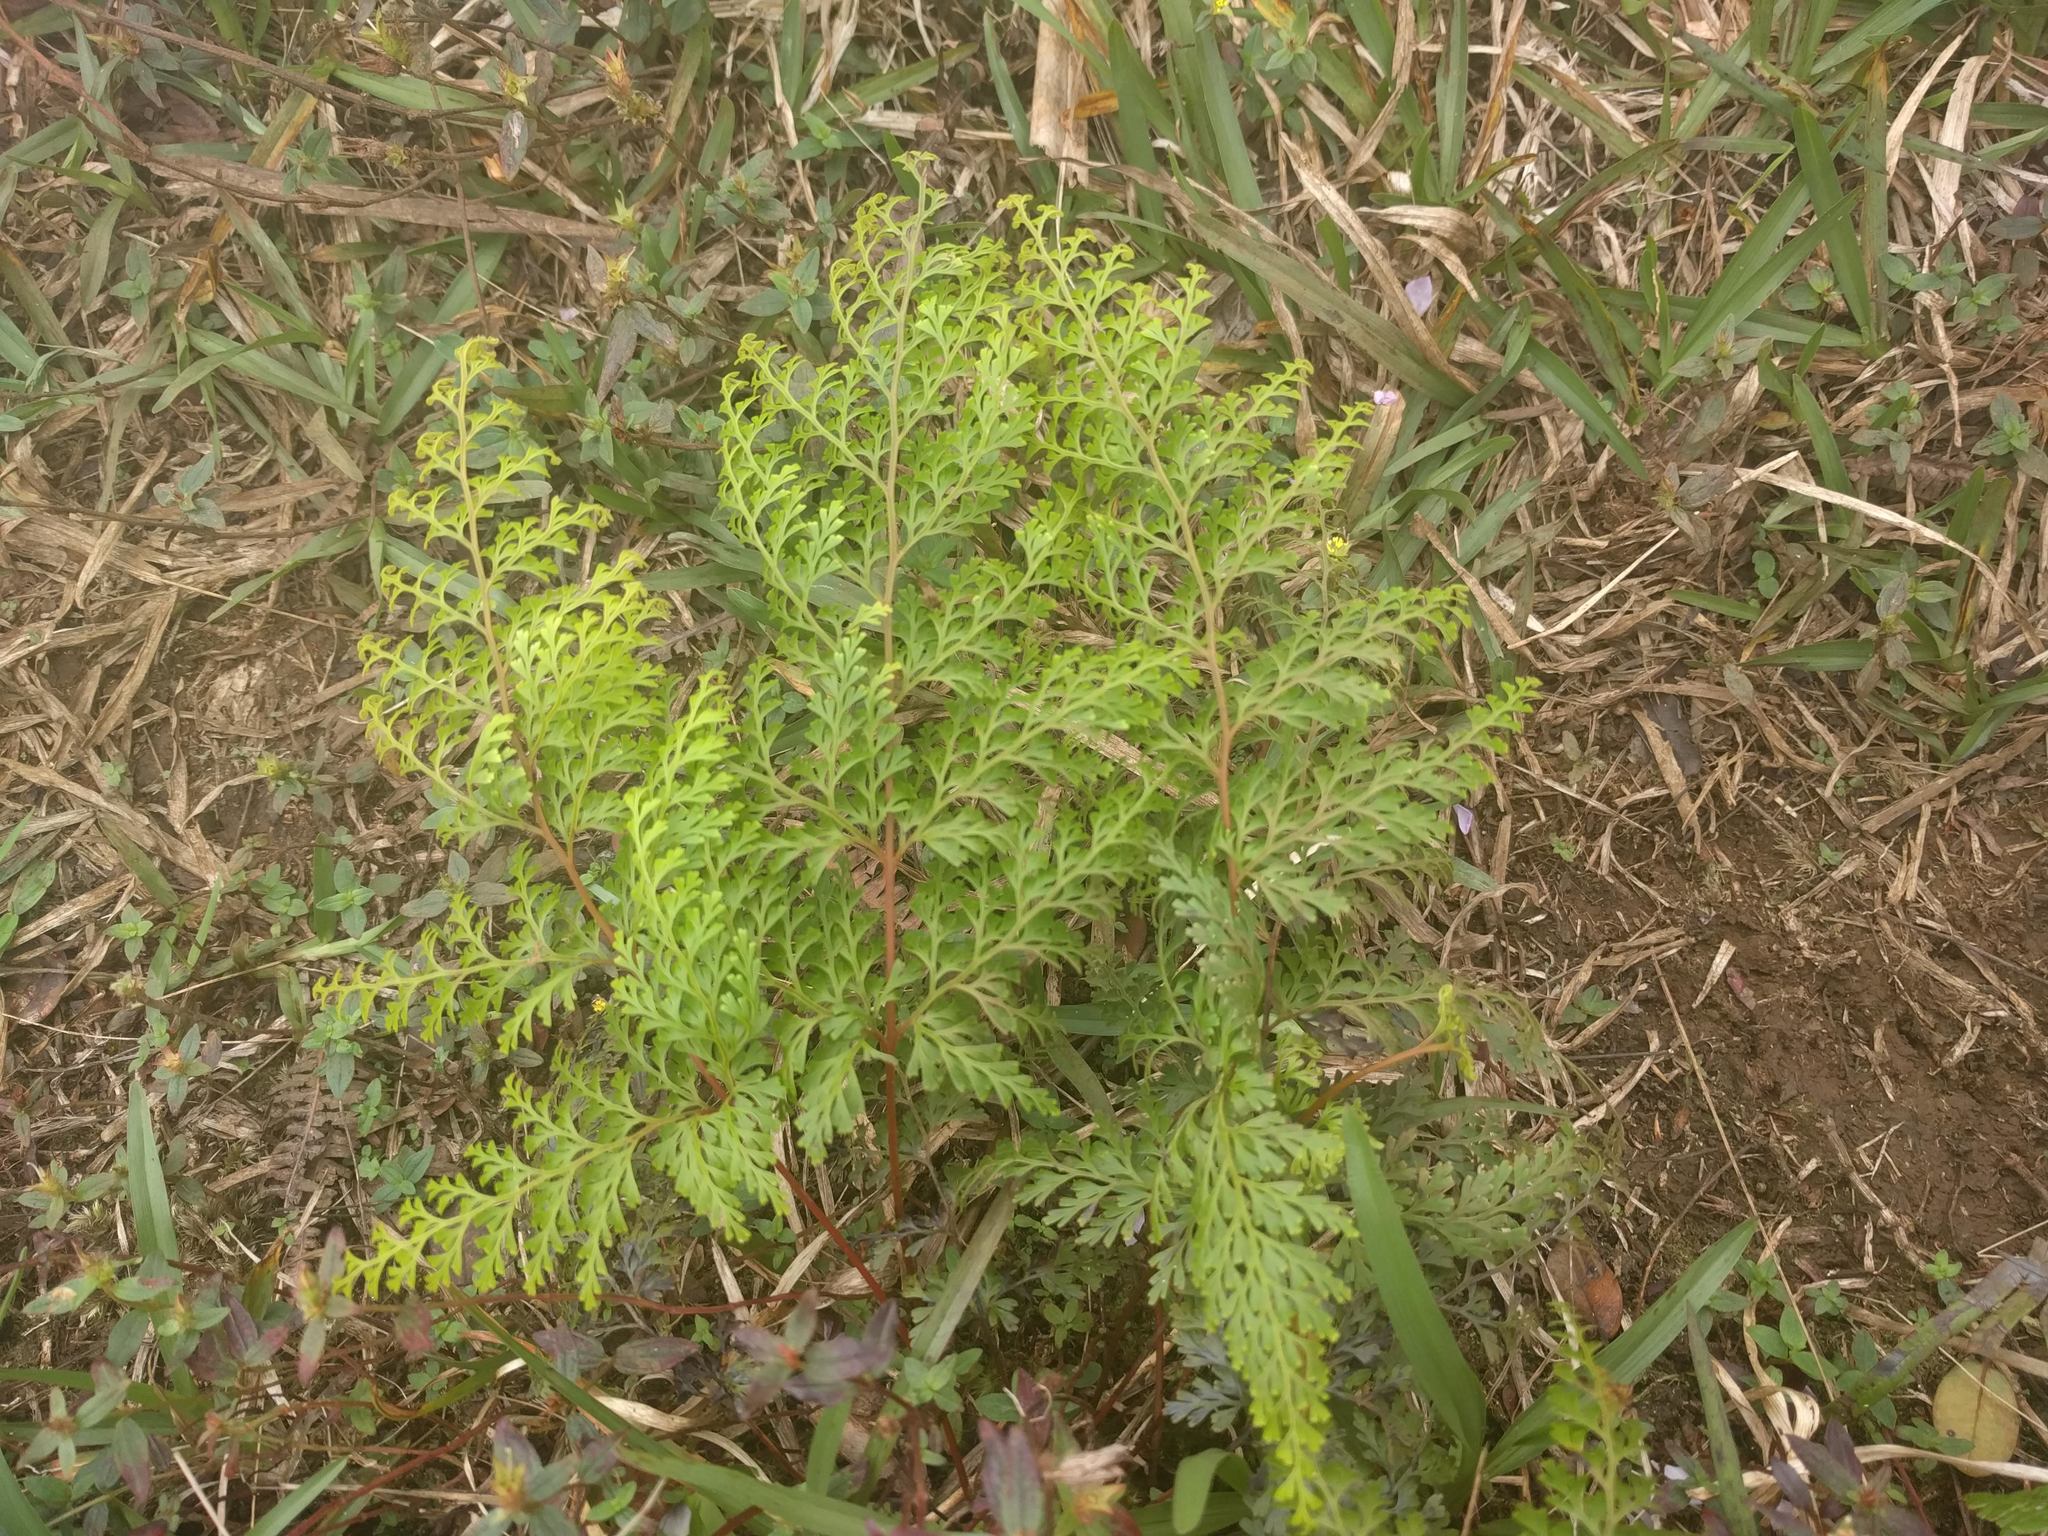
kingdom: Plantae
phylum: Tracheophyta
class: Polypodiopsida
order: Polypodiales
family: Lindsaeaceae
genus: Odontosoria
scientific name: Odontosoria chinensis
